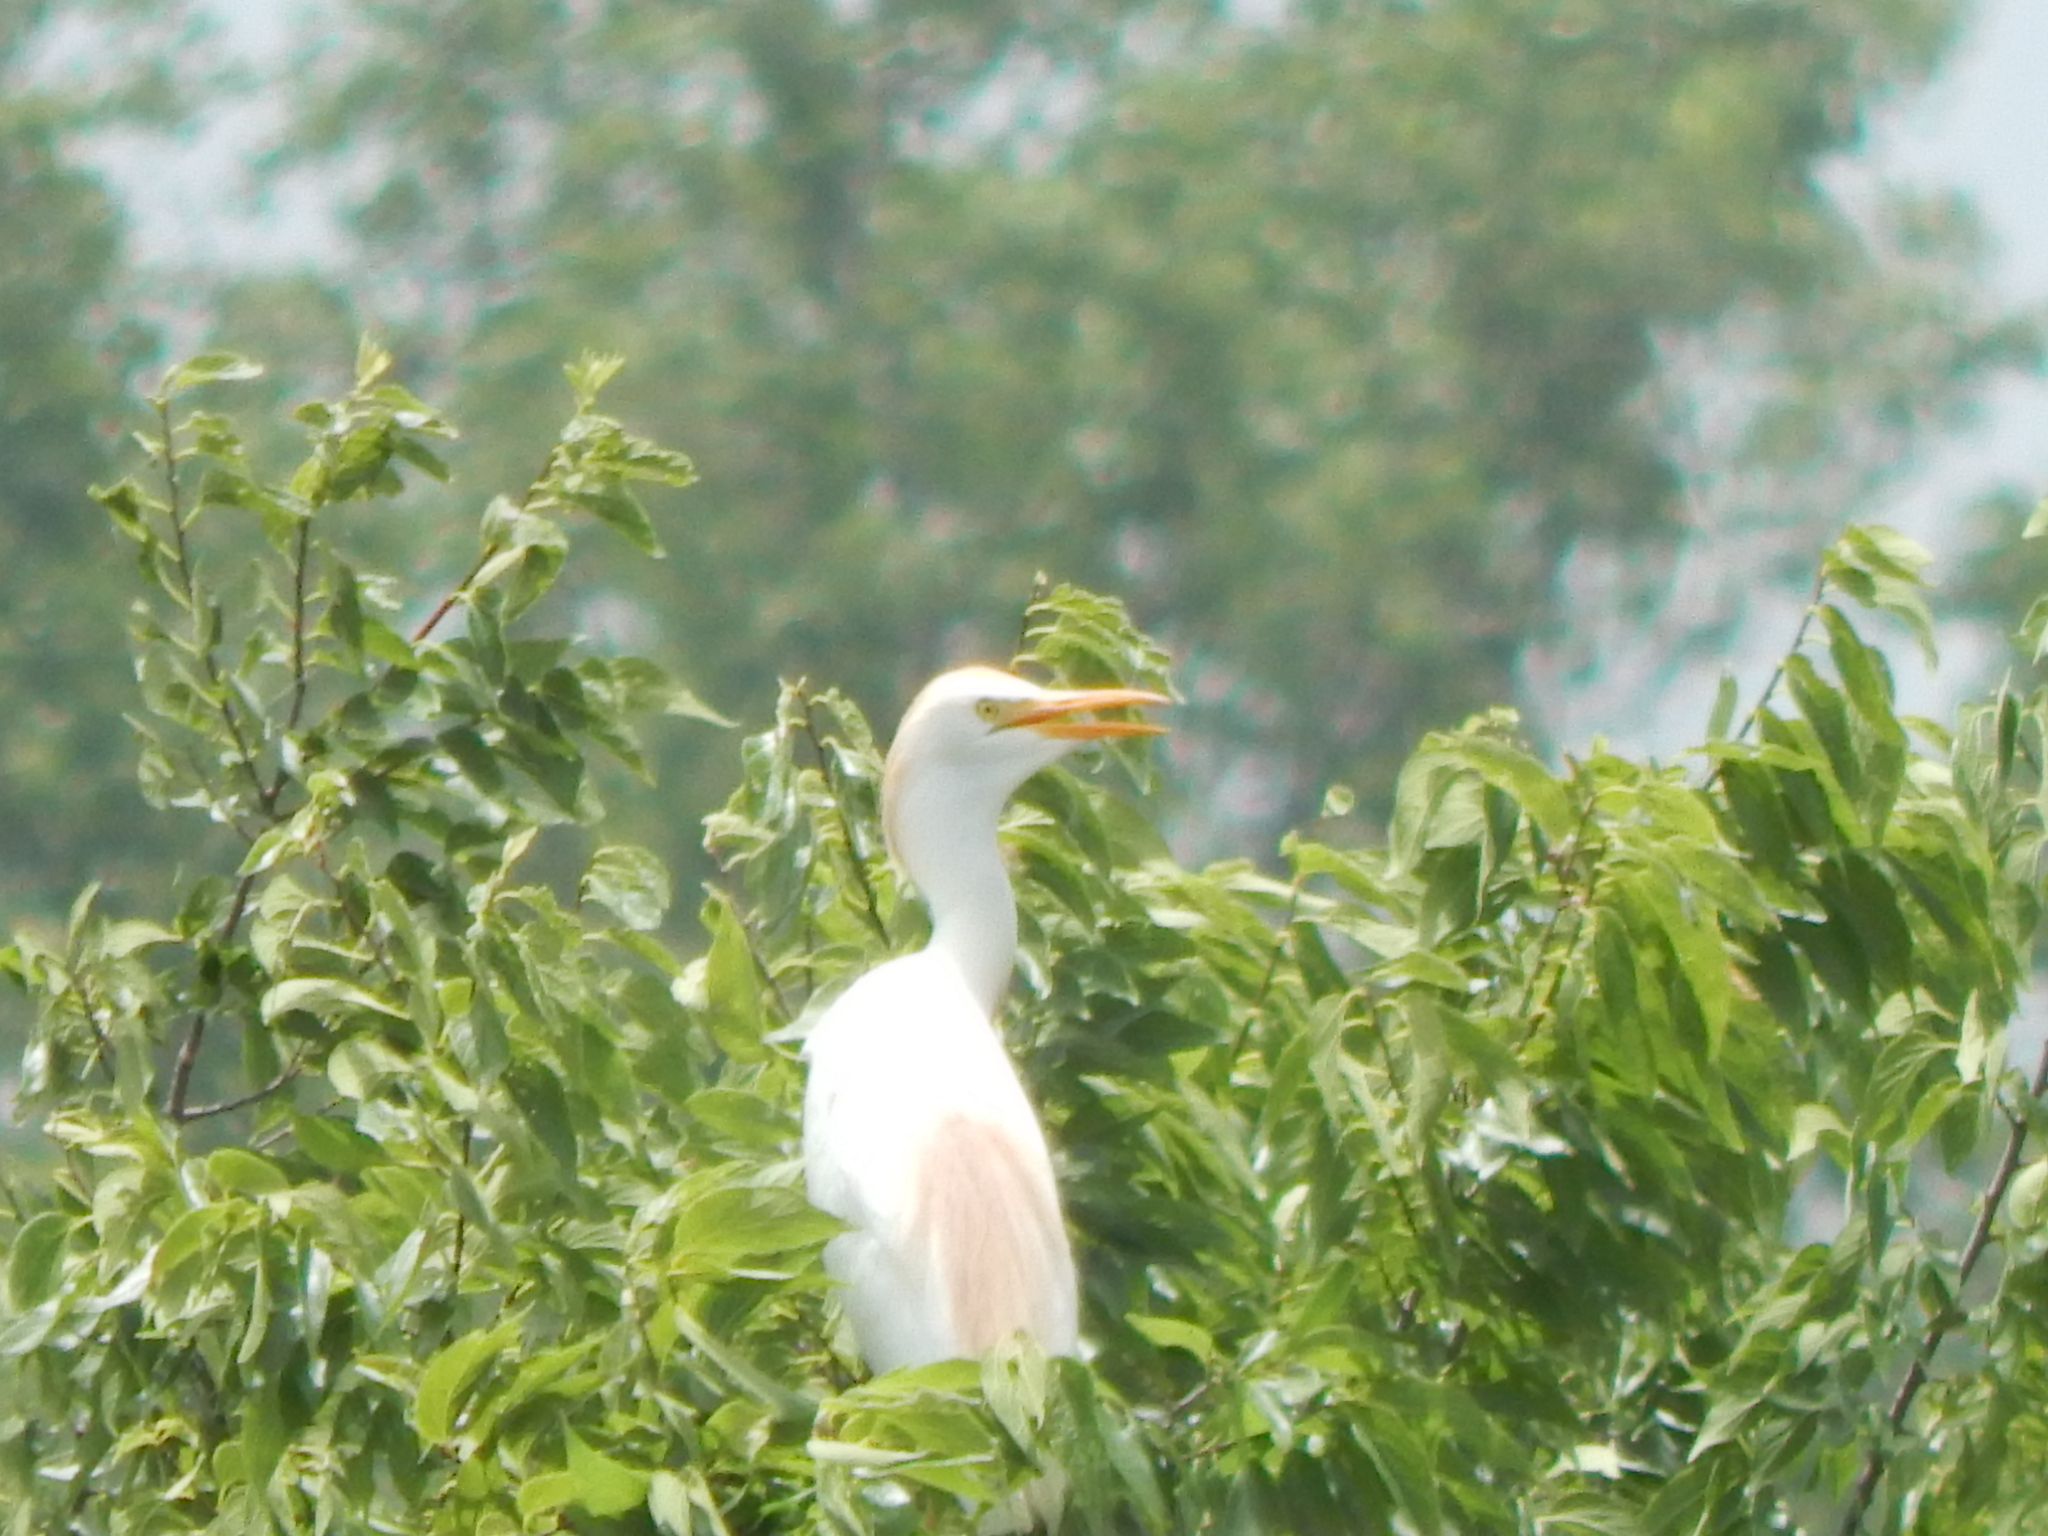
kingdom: Animalia
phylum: Chordata
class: Aves
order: Pelecaniformes
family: Ardeidae
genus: Bubulcus
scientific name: Bubulcus ibis
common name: Cattle egret
